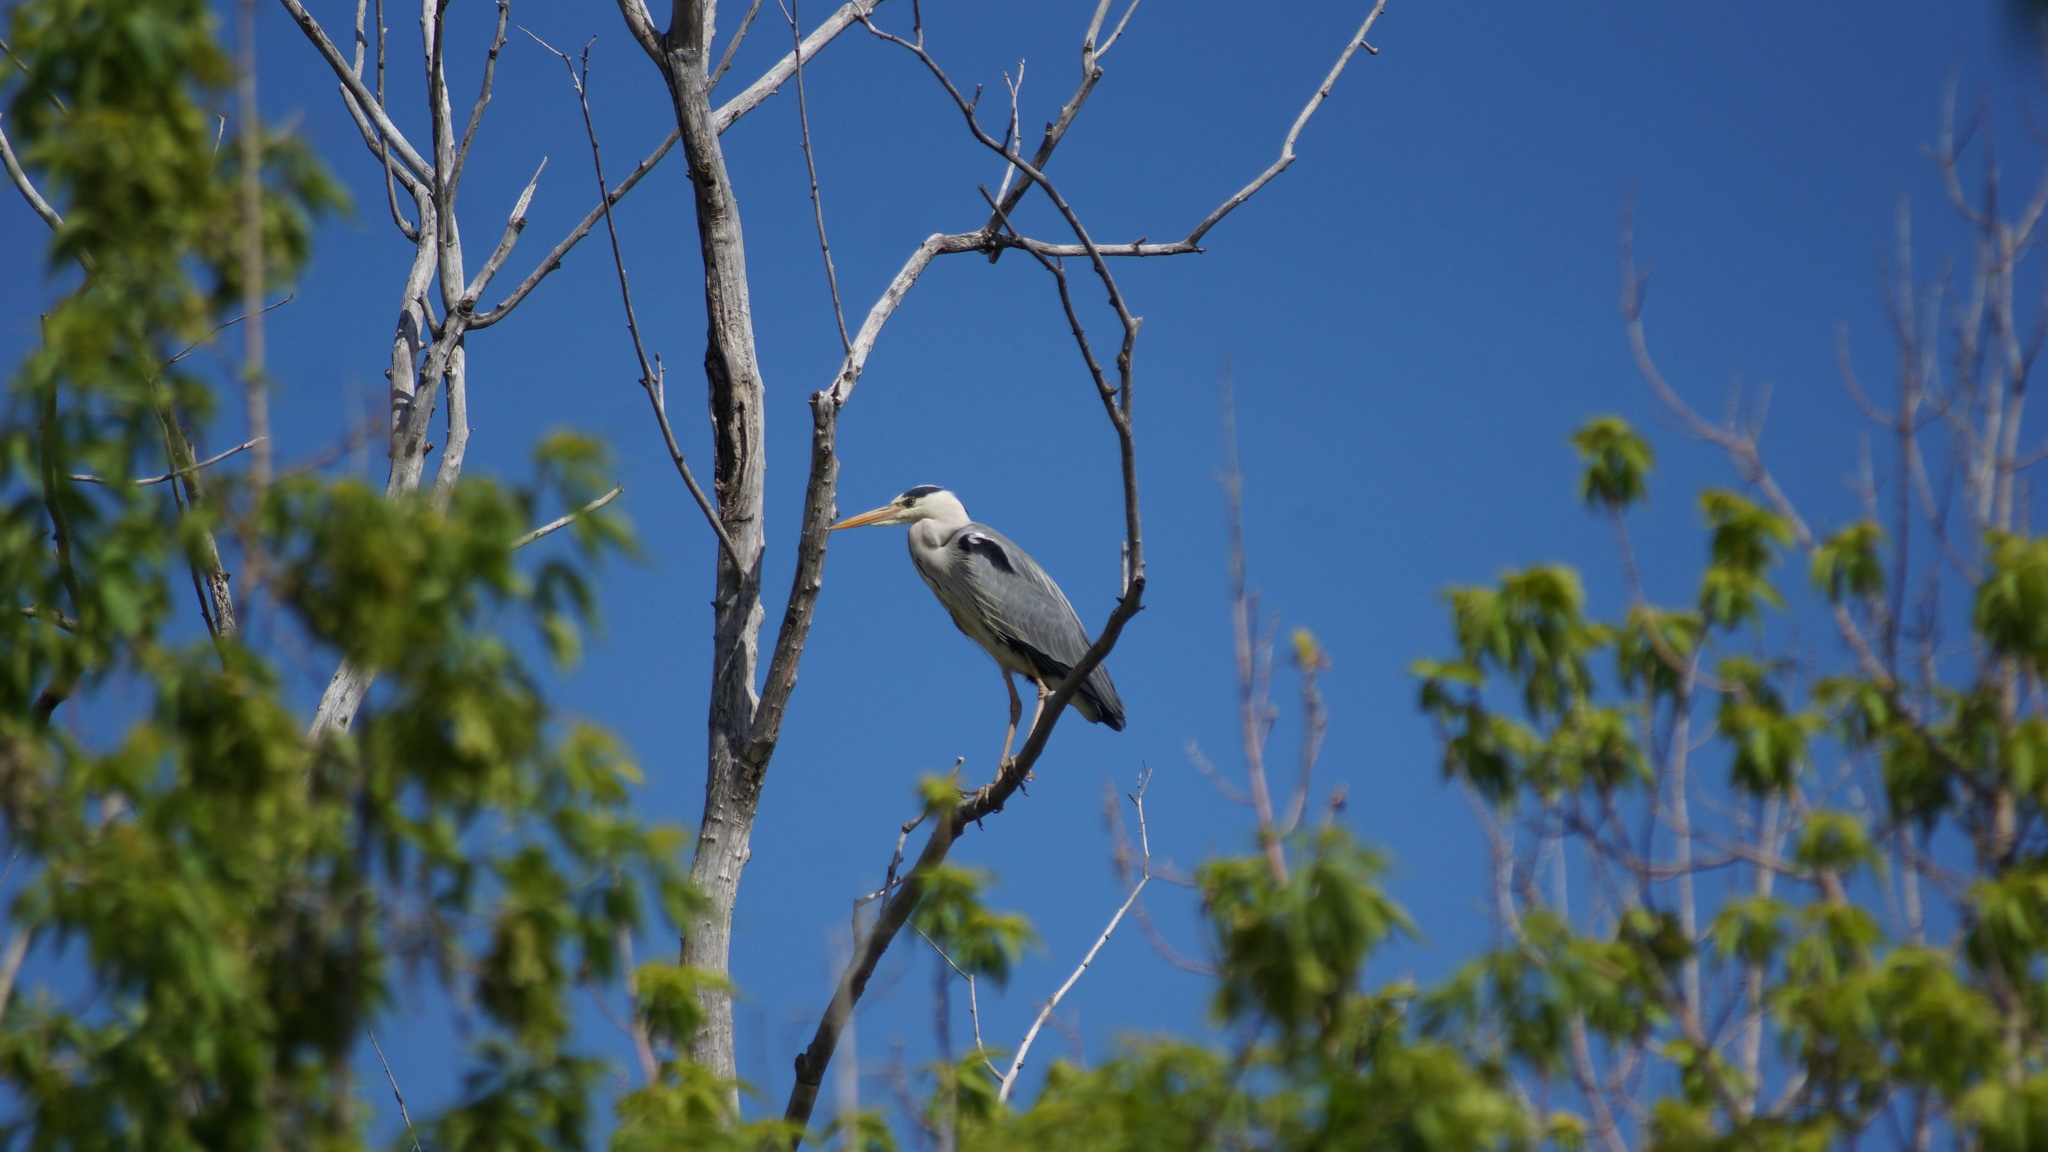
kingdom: Animalia
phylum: Chordata
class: Aves
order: Pelecaniformes
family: Ardeidae
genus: Ardea
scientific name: Ardea cinerea
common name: Grey heron
